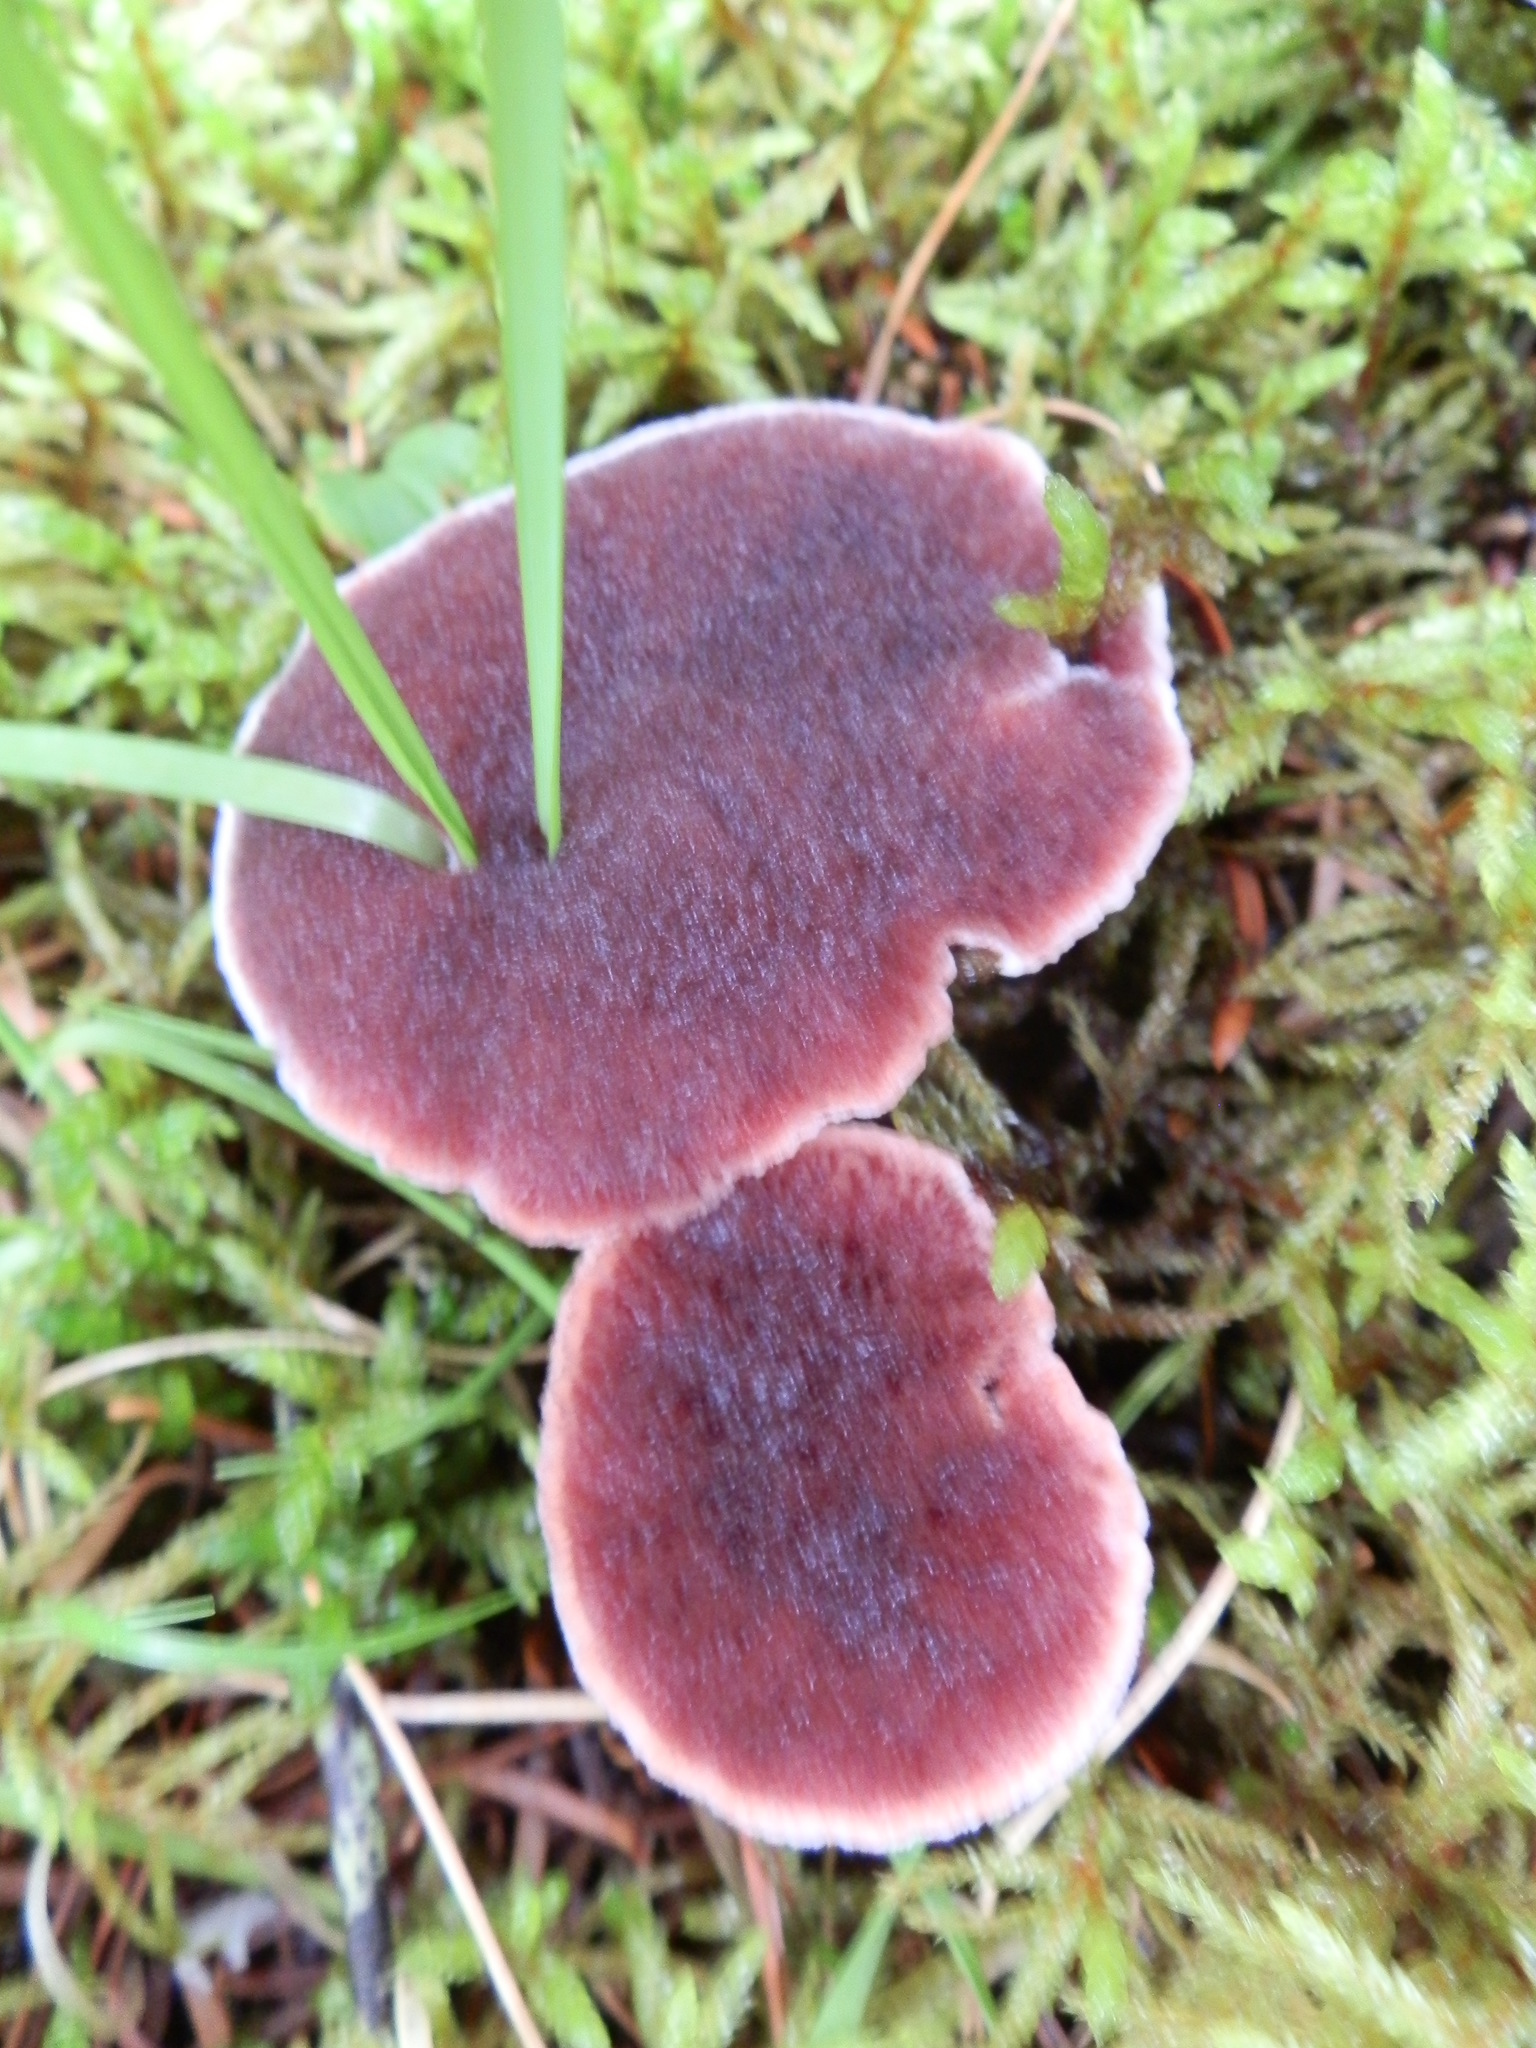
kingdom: Fungi
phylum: Basidiomycota
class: Agaricomycetes
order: Thelephorales
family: Bankeraceae
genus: Hydnellum
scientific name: Hydnellum peckii
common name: Devil's tooth
